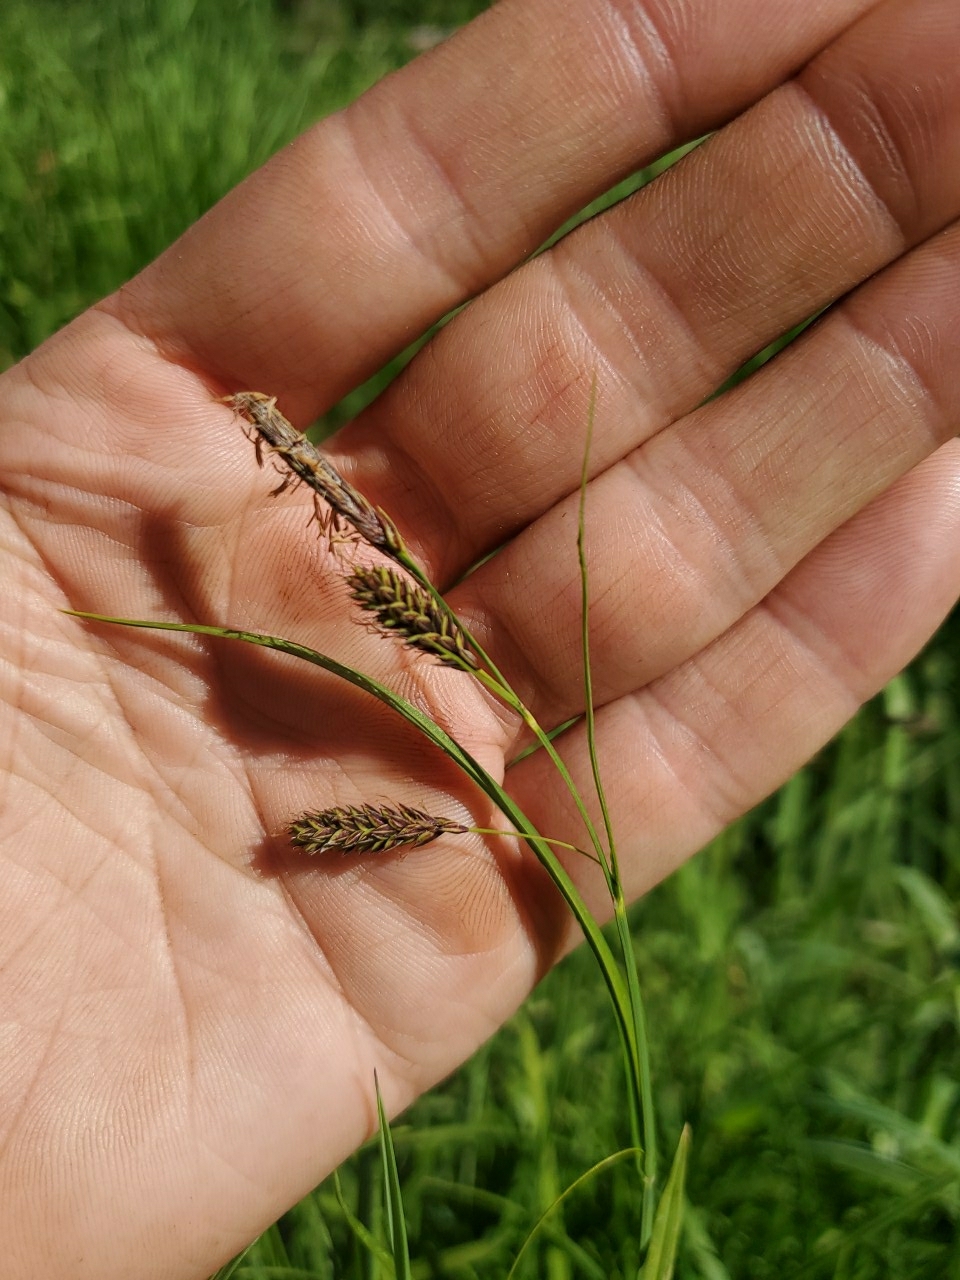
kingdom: Plantae
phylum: Tracheophyta
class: Liliopsida
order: Poales
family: Cyperaceae
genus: Carex
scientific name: Carex spectabilis
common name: Northwestern showy sedge
